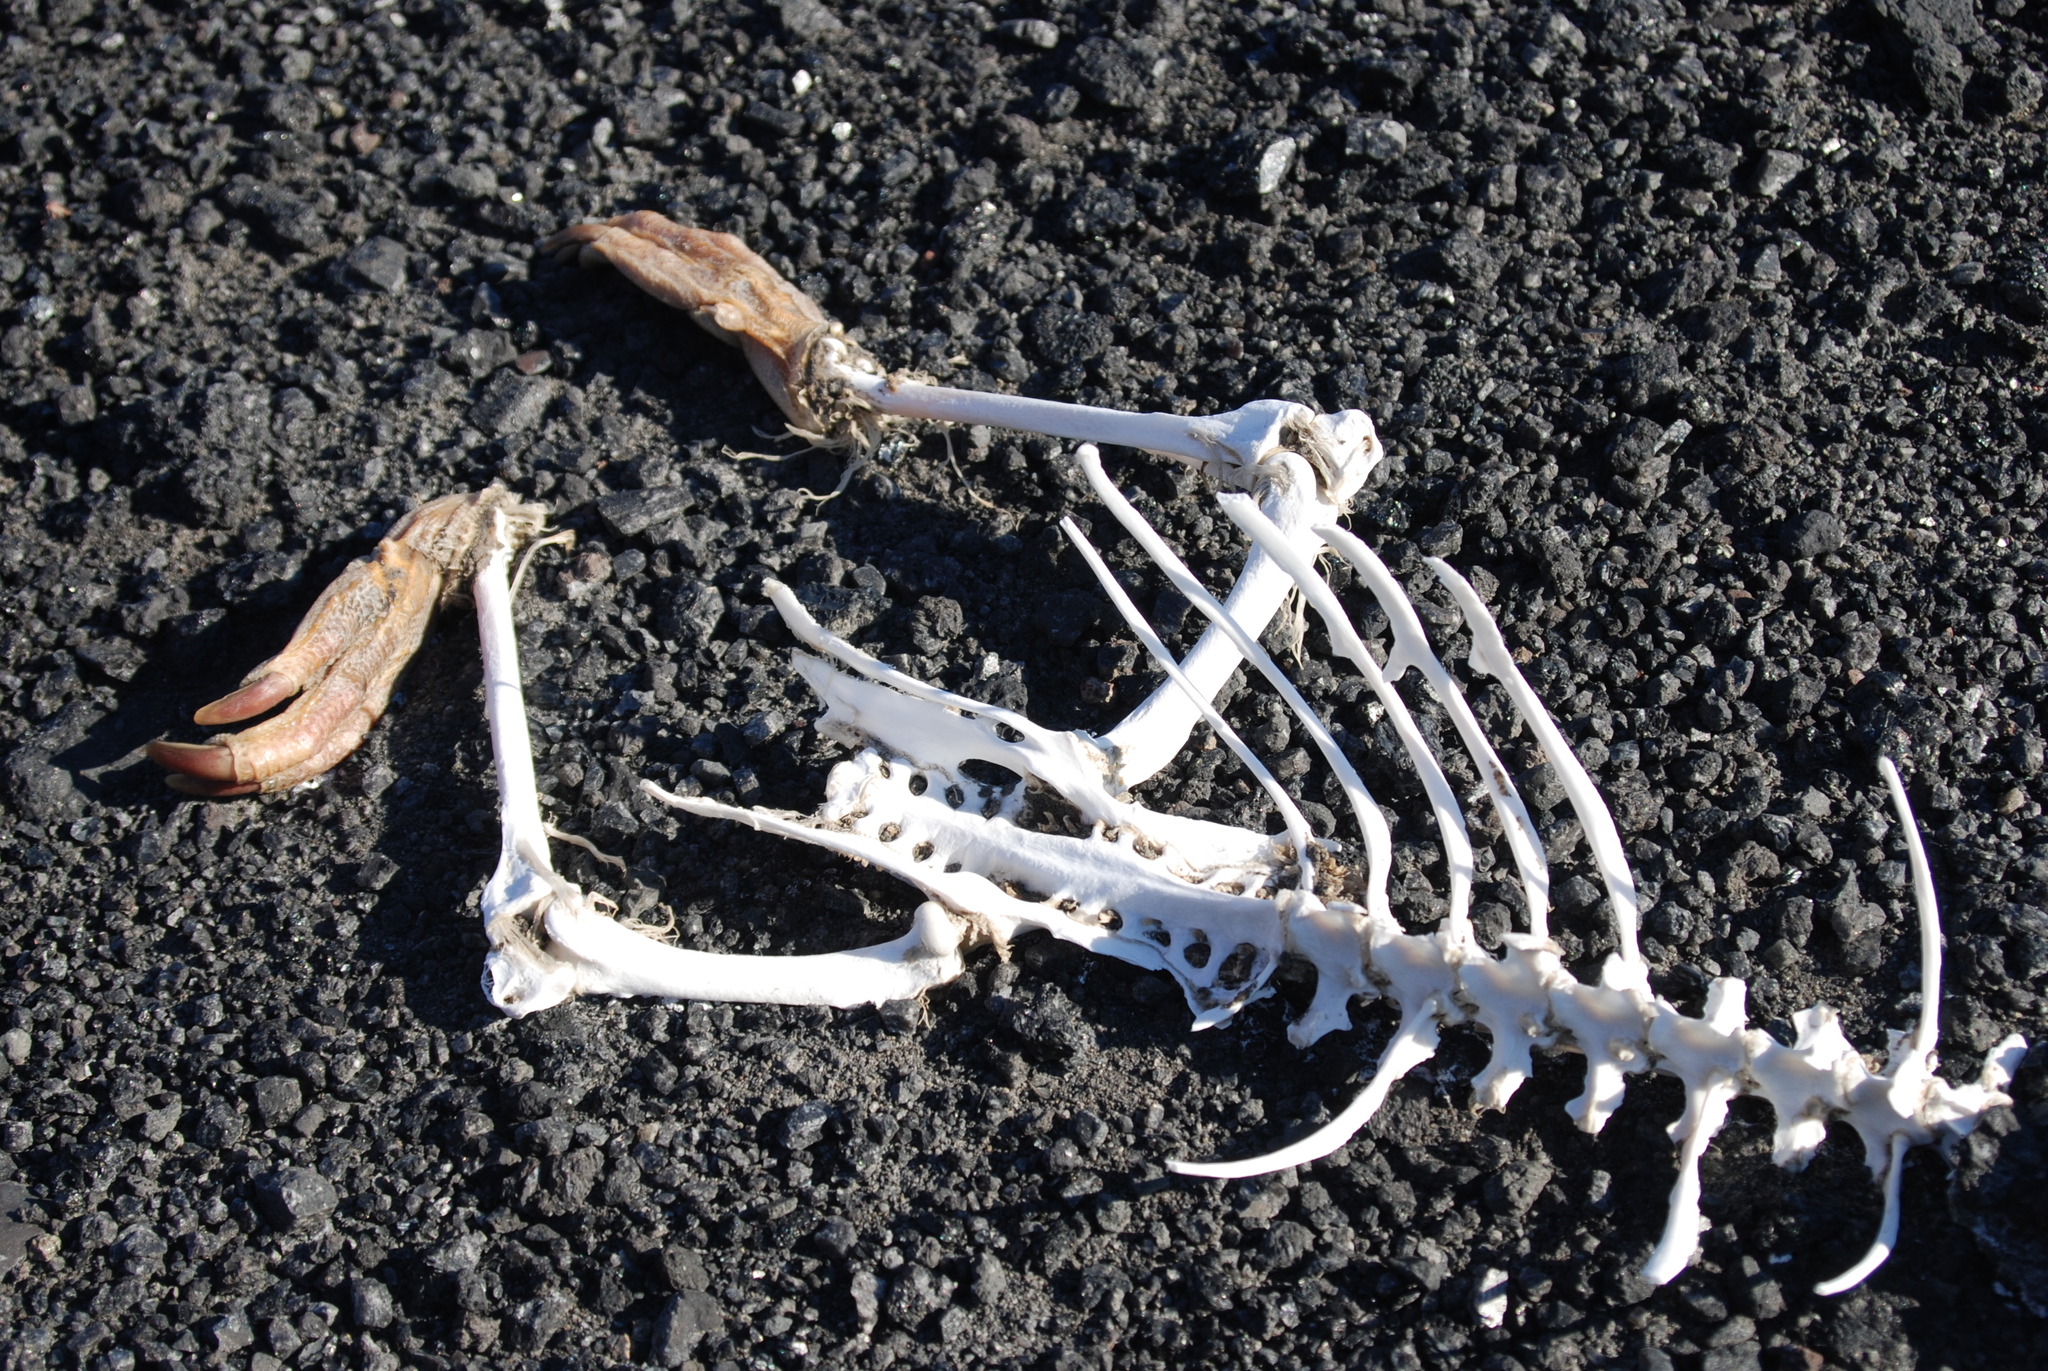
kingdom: Animalia
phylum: Chordata
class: Aves
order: Sphenisciformes
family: Spheniscidae
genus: Pygoscelis
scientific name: Pygoscelis adeliae
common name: Adelie penguin
